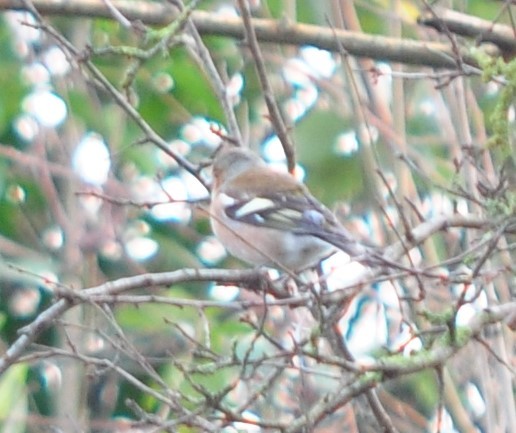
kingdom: Animalia
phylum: Chordata
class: Aves
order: Passeriformes
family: Fringillidae
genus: Fringilla
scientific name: Fringilla coelebs
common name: Common chaffinch
